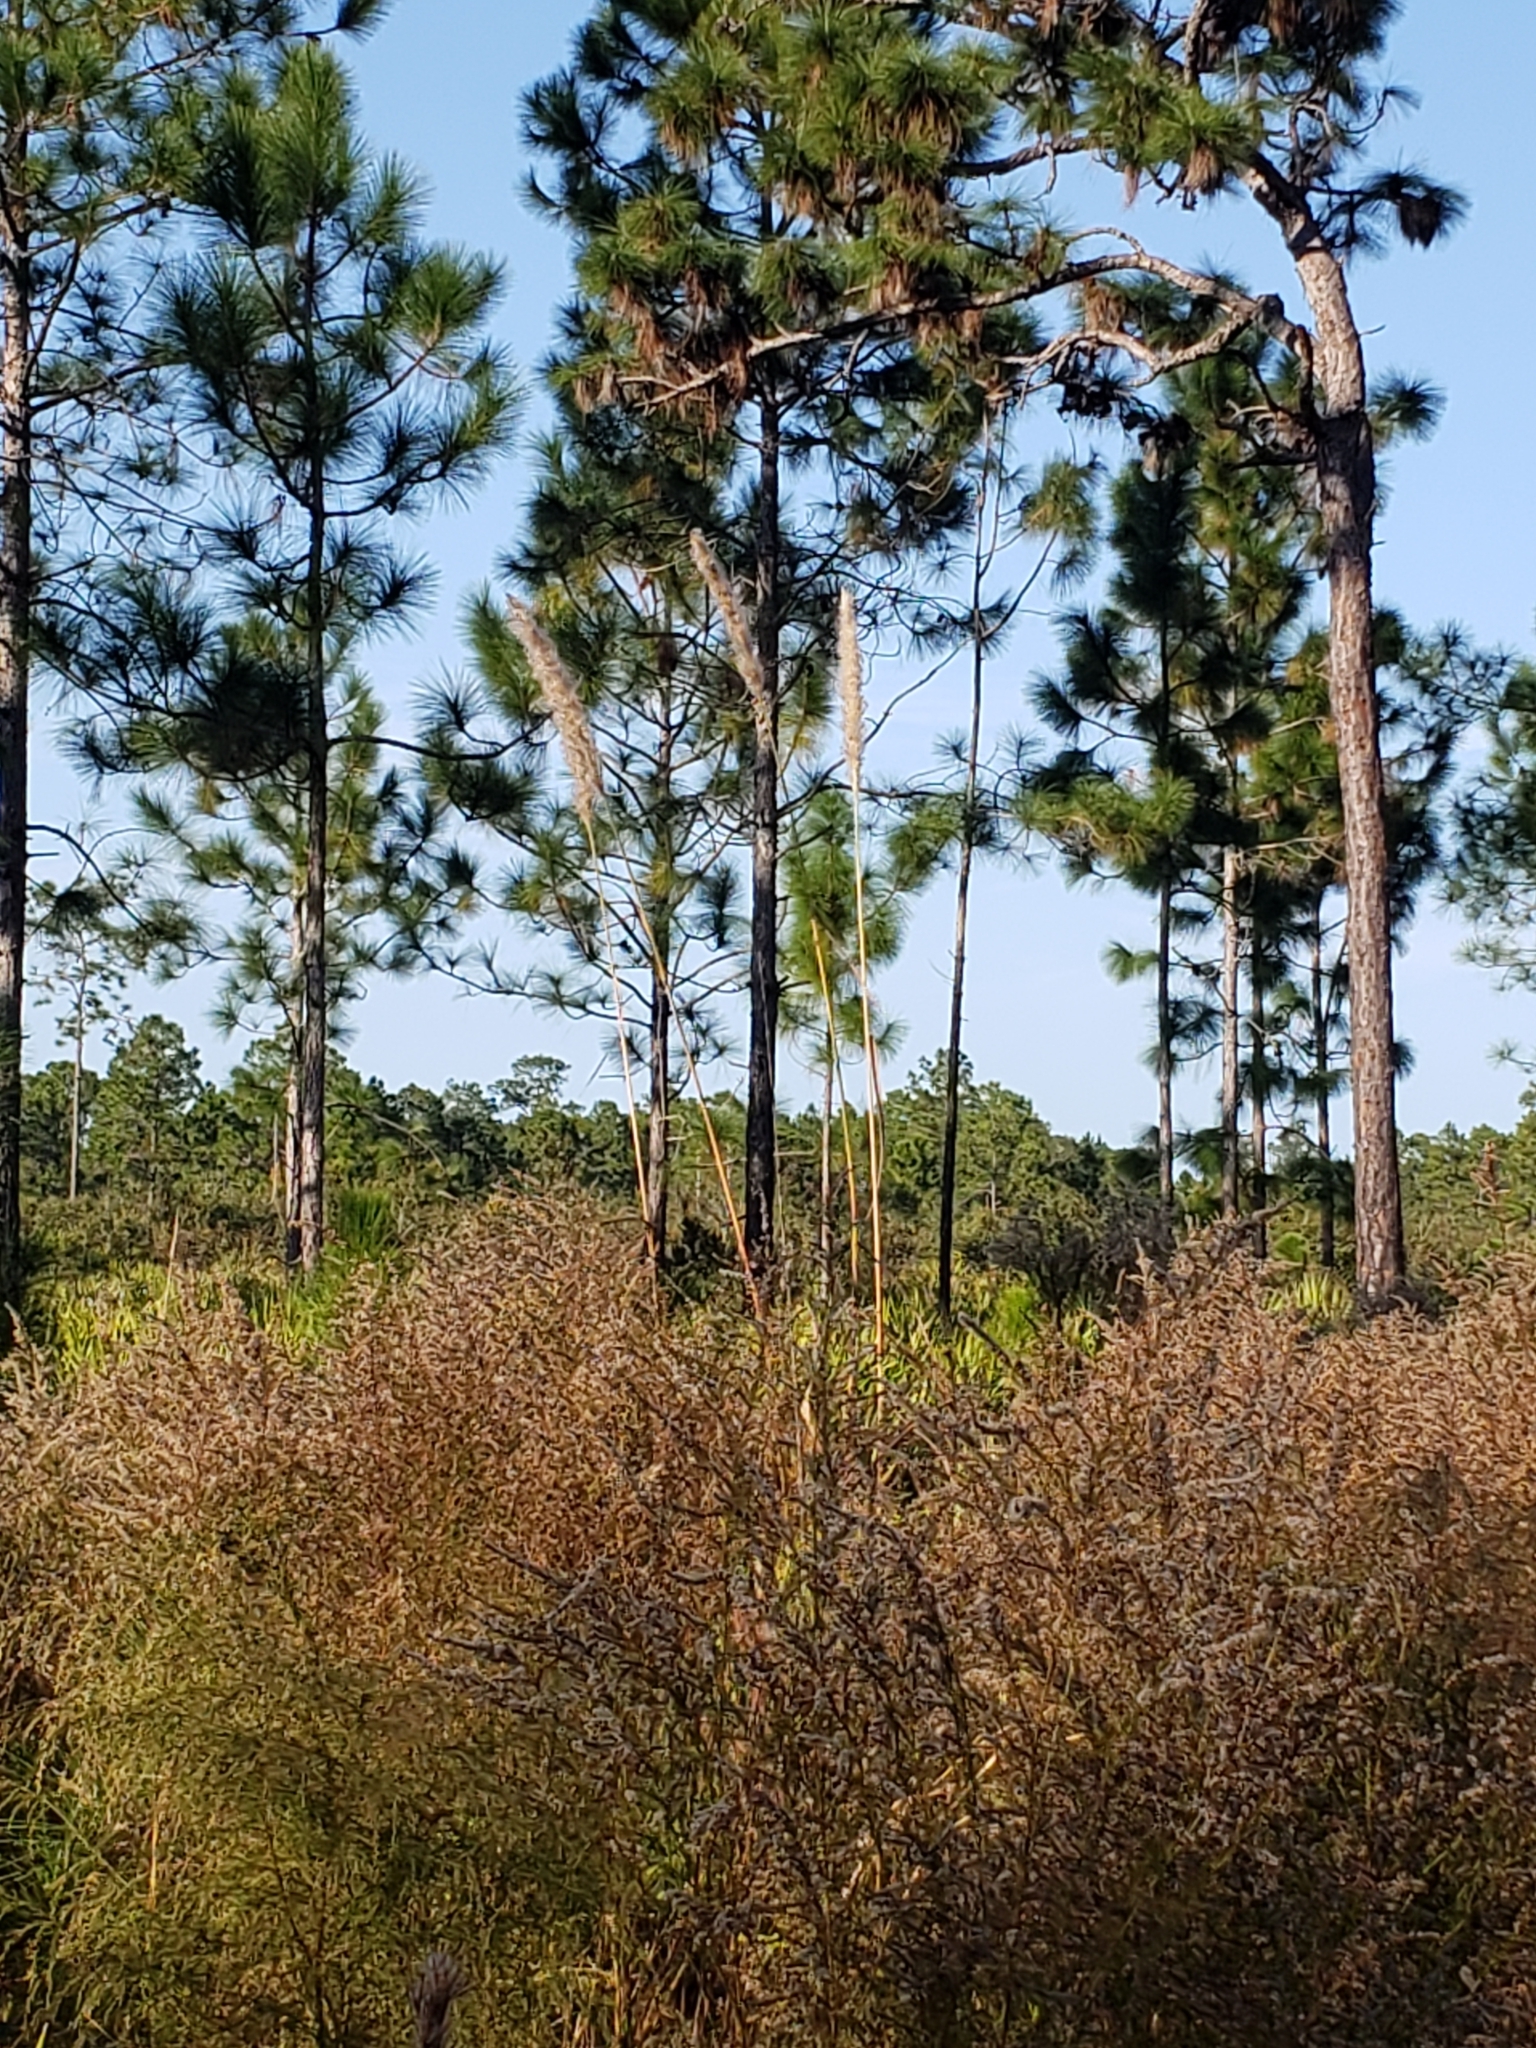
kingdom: Plantae
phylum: Tracheophyta
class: Liliopsida
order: Poales
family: Poaceae
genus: Erianthus
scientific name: Erianthus giganteus
